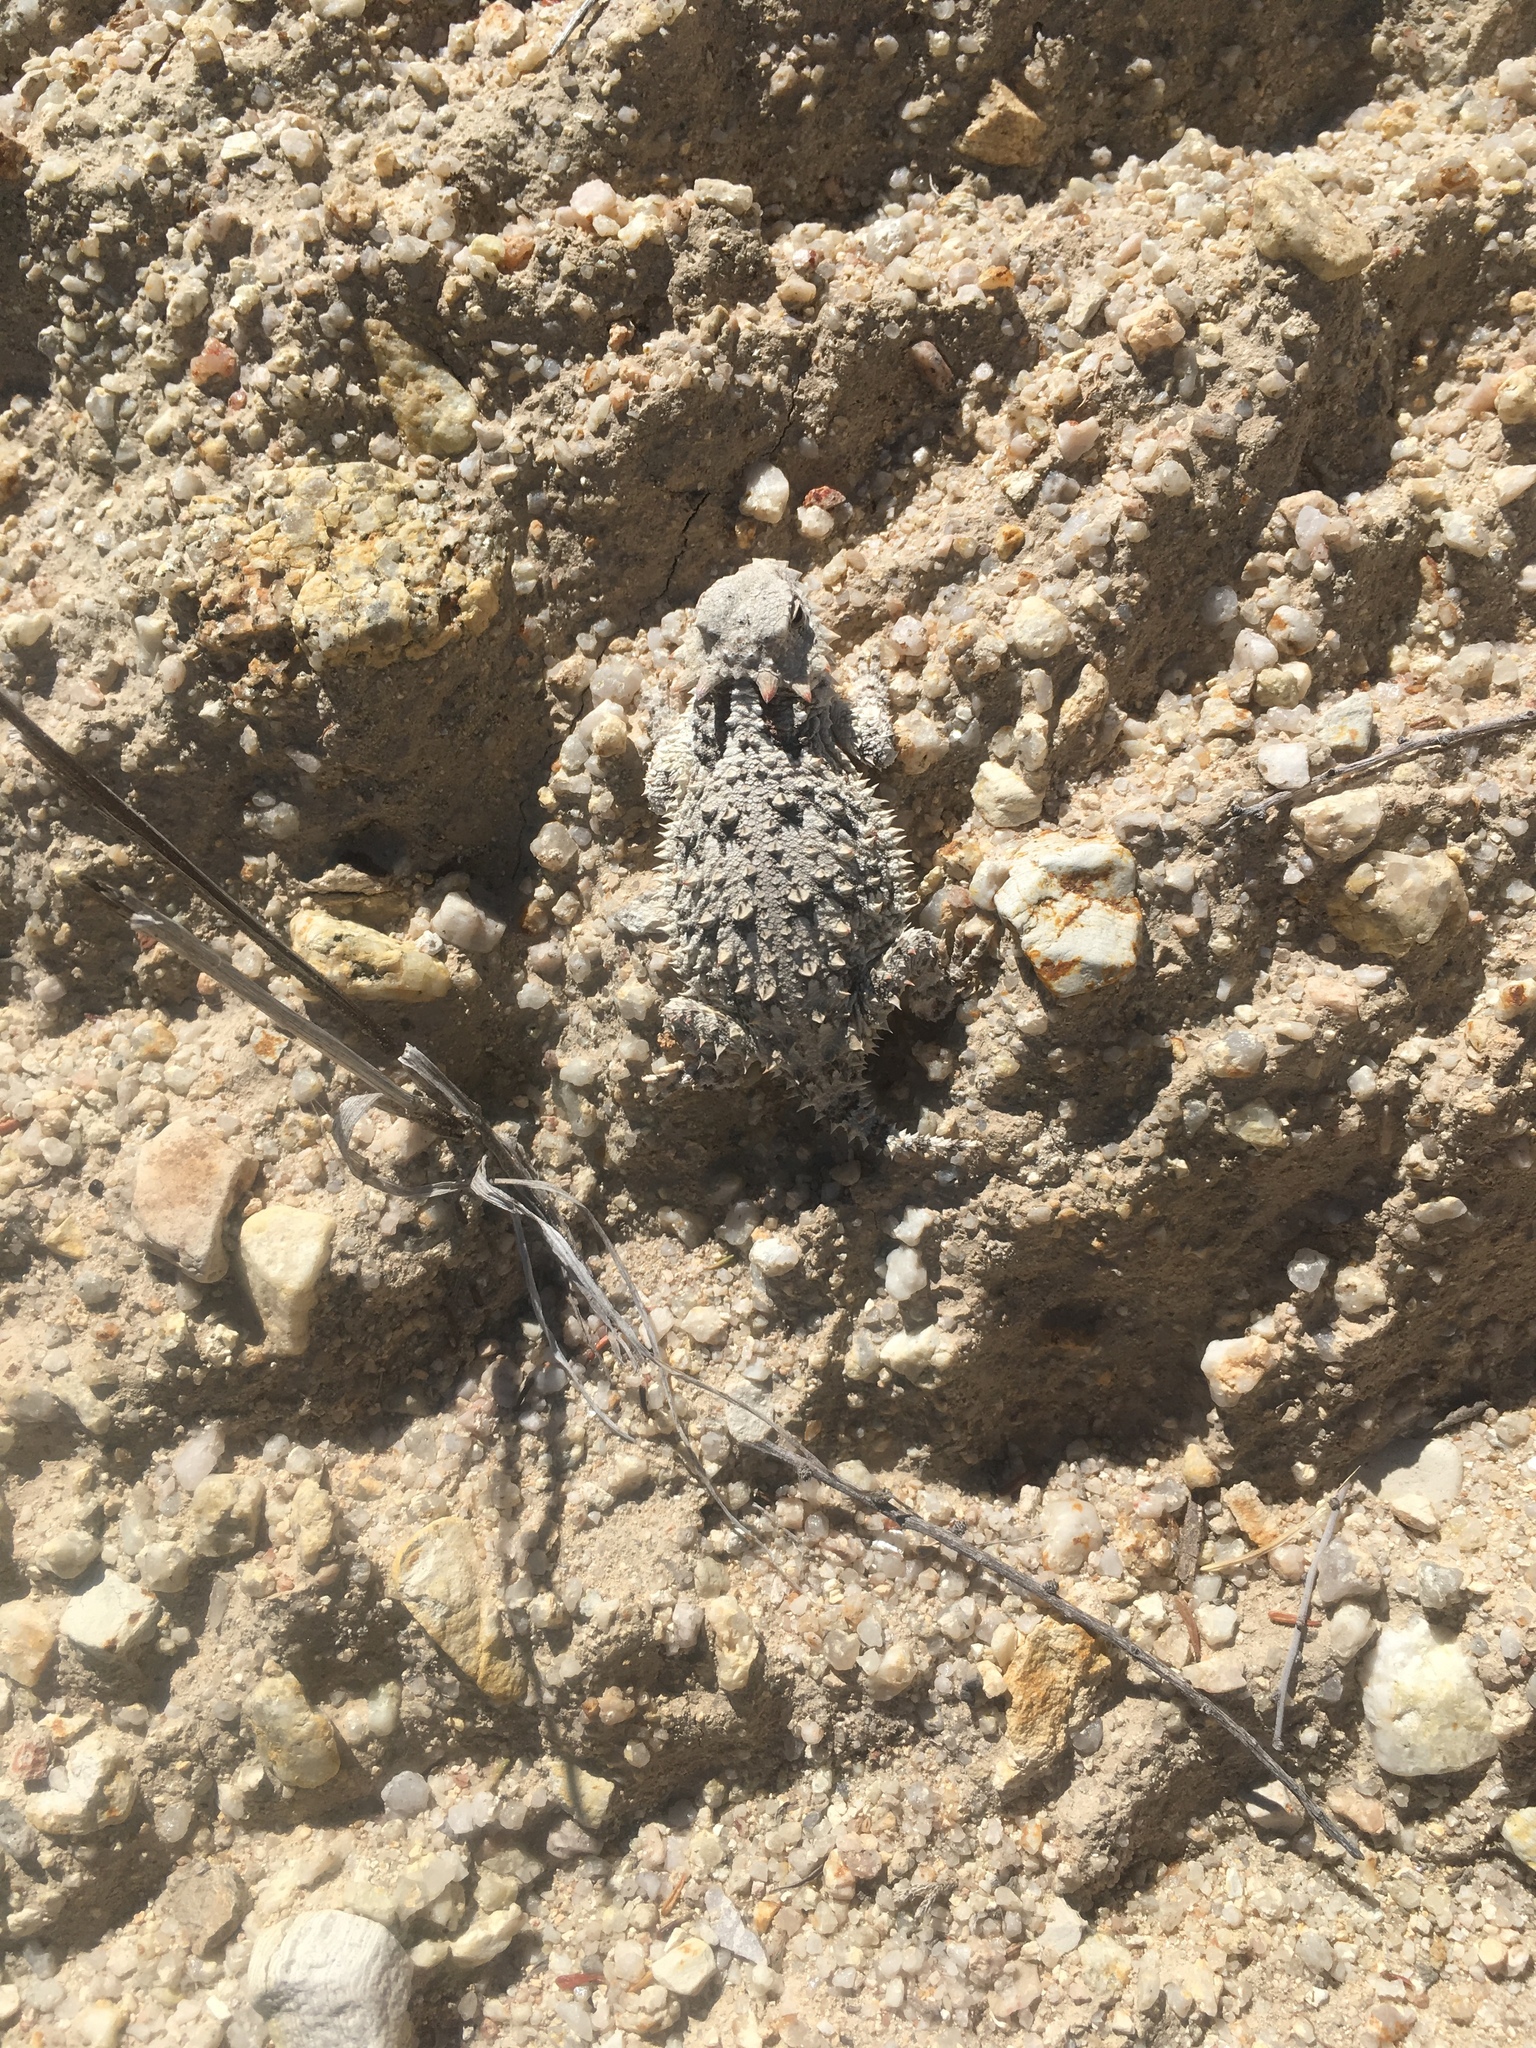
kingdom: Animalia
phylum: Chordata
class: Squamata
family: Phrynosomatidae
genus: Phrynosoma
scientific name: Phrynosoma blainvillii
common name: San diego horned lizard
